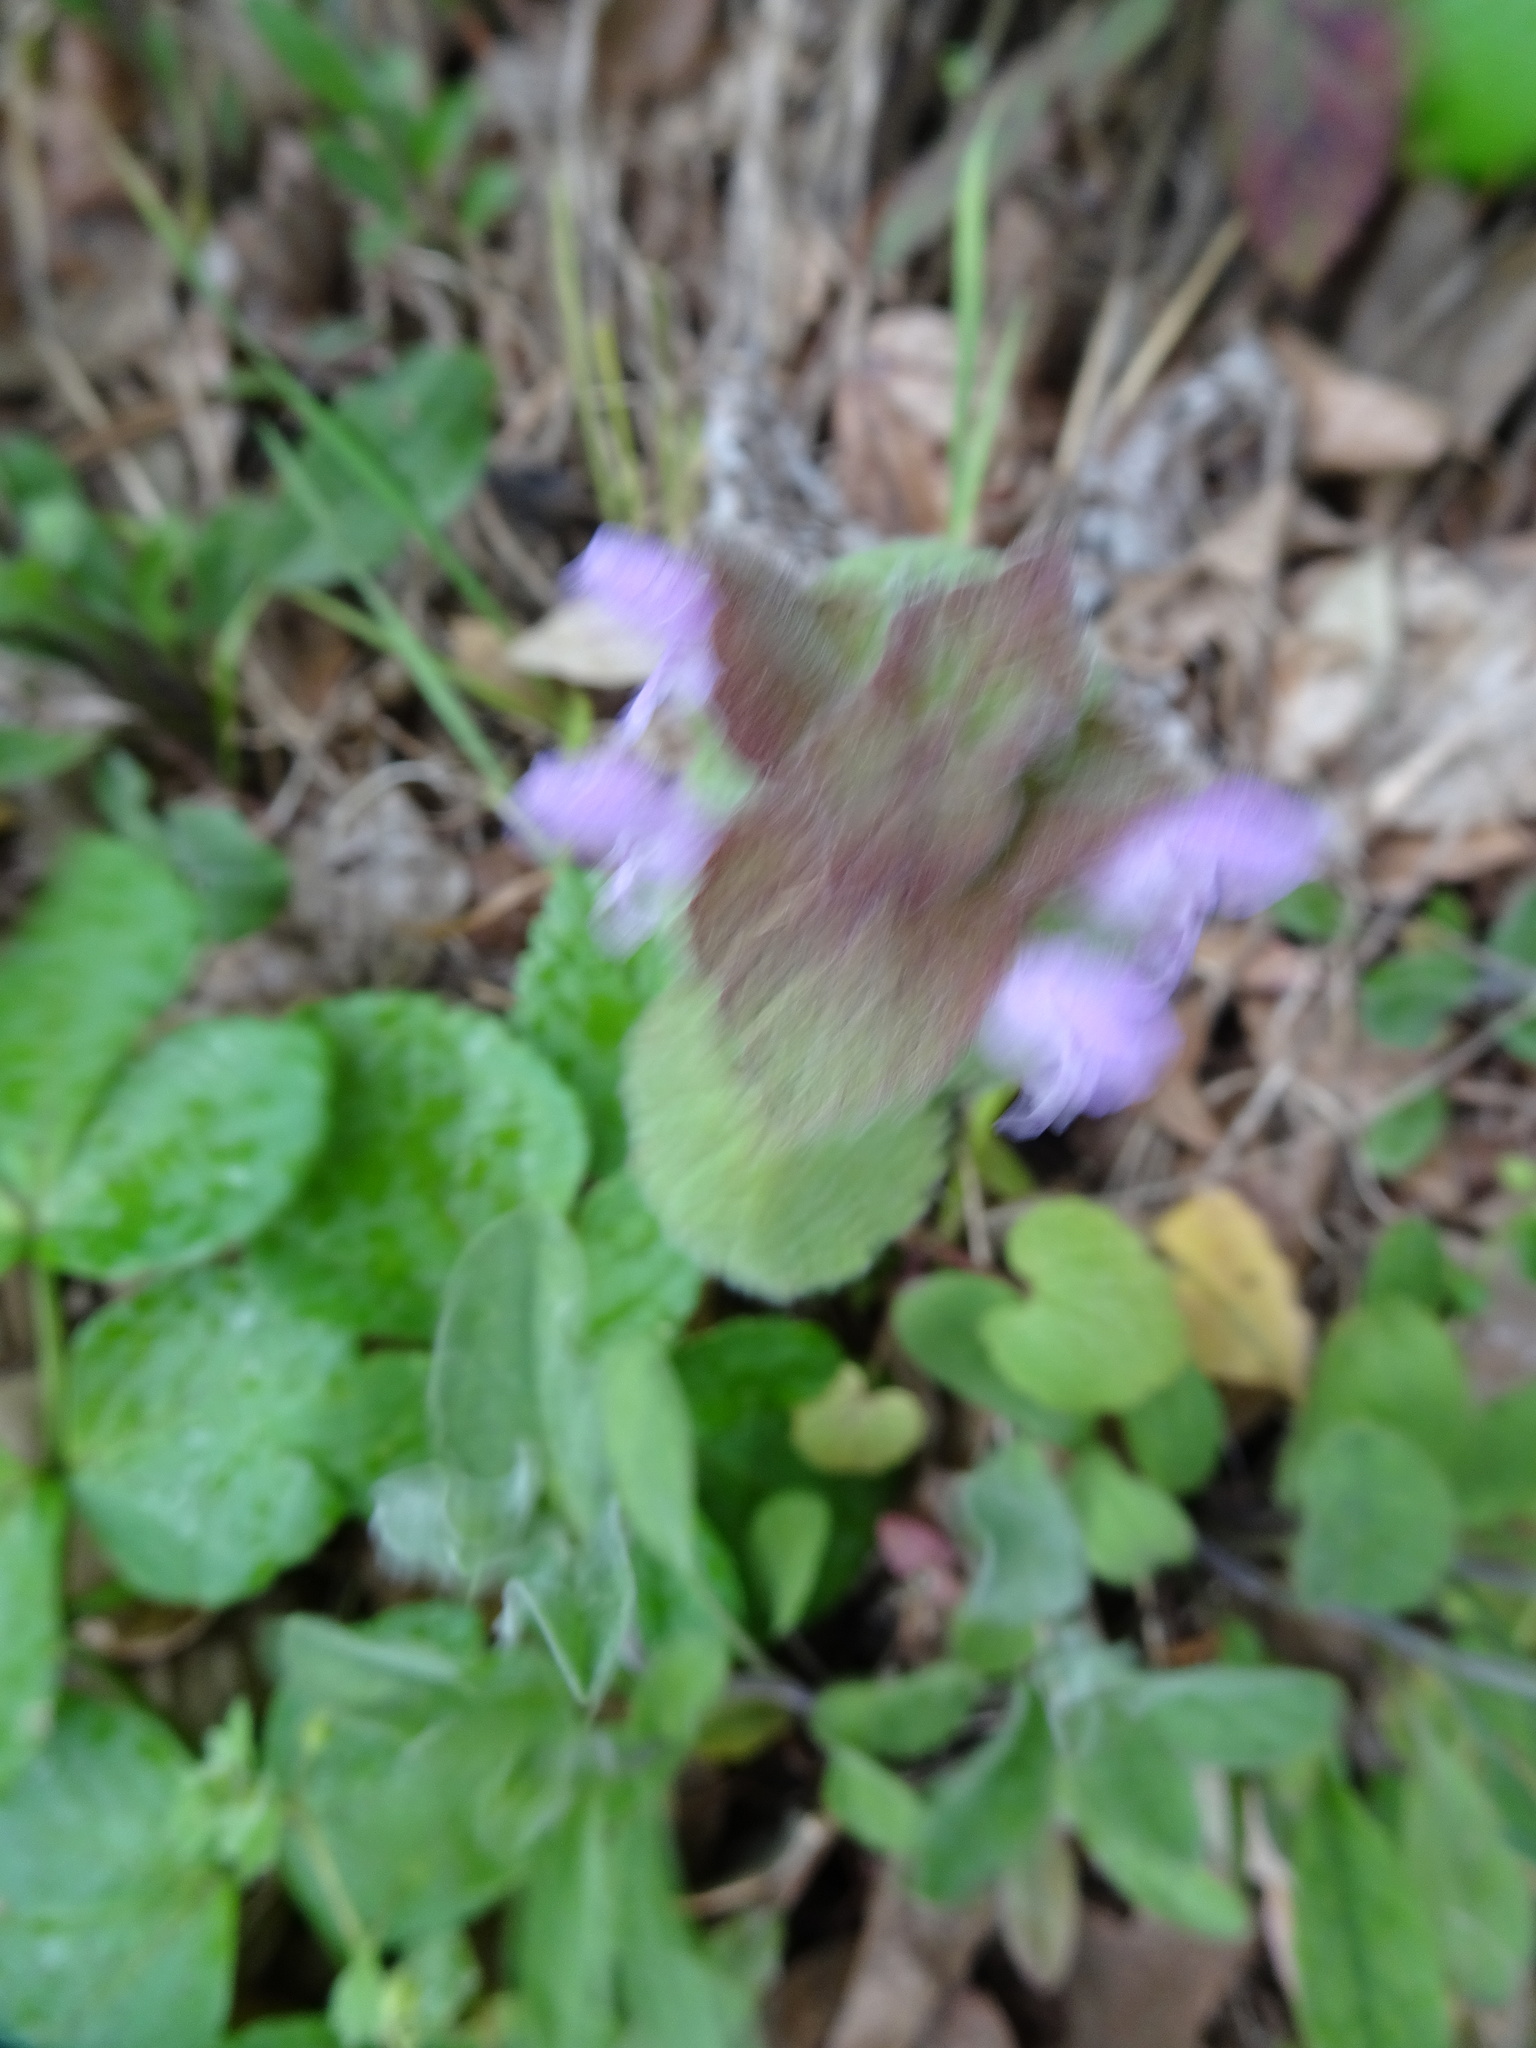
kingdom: Plantae
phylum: Tracheophyta
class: Magnoliopsida
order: Lamiales
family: Lamiaceae
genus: Lamium
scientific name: Lamium purpureum
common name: Red dead-nettle
